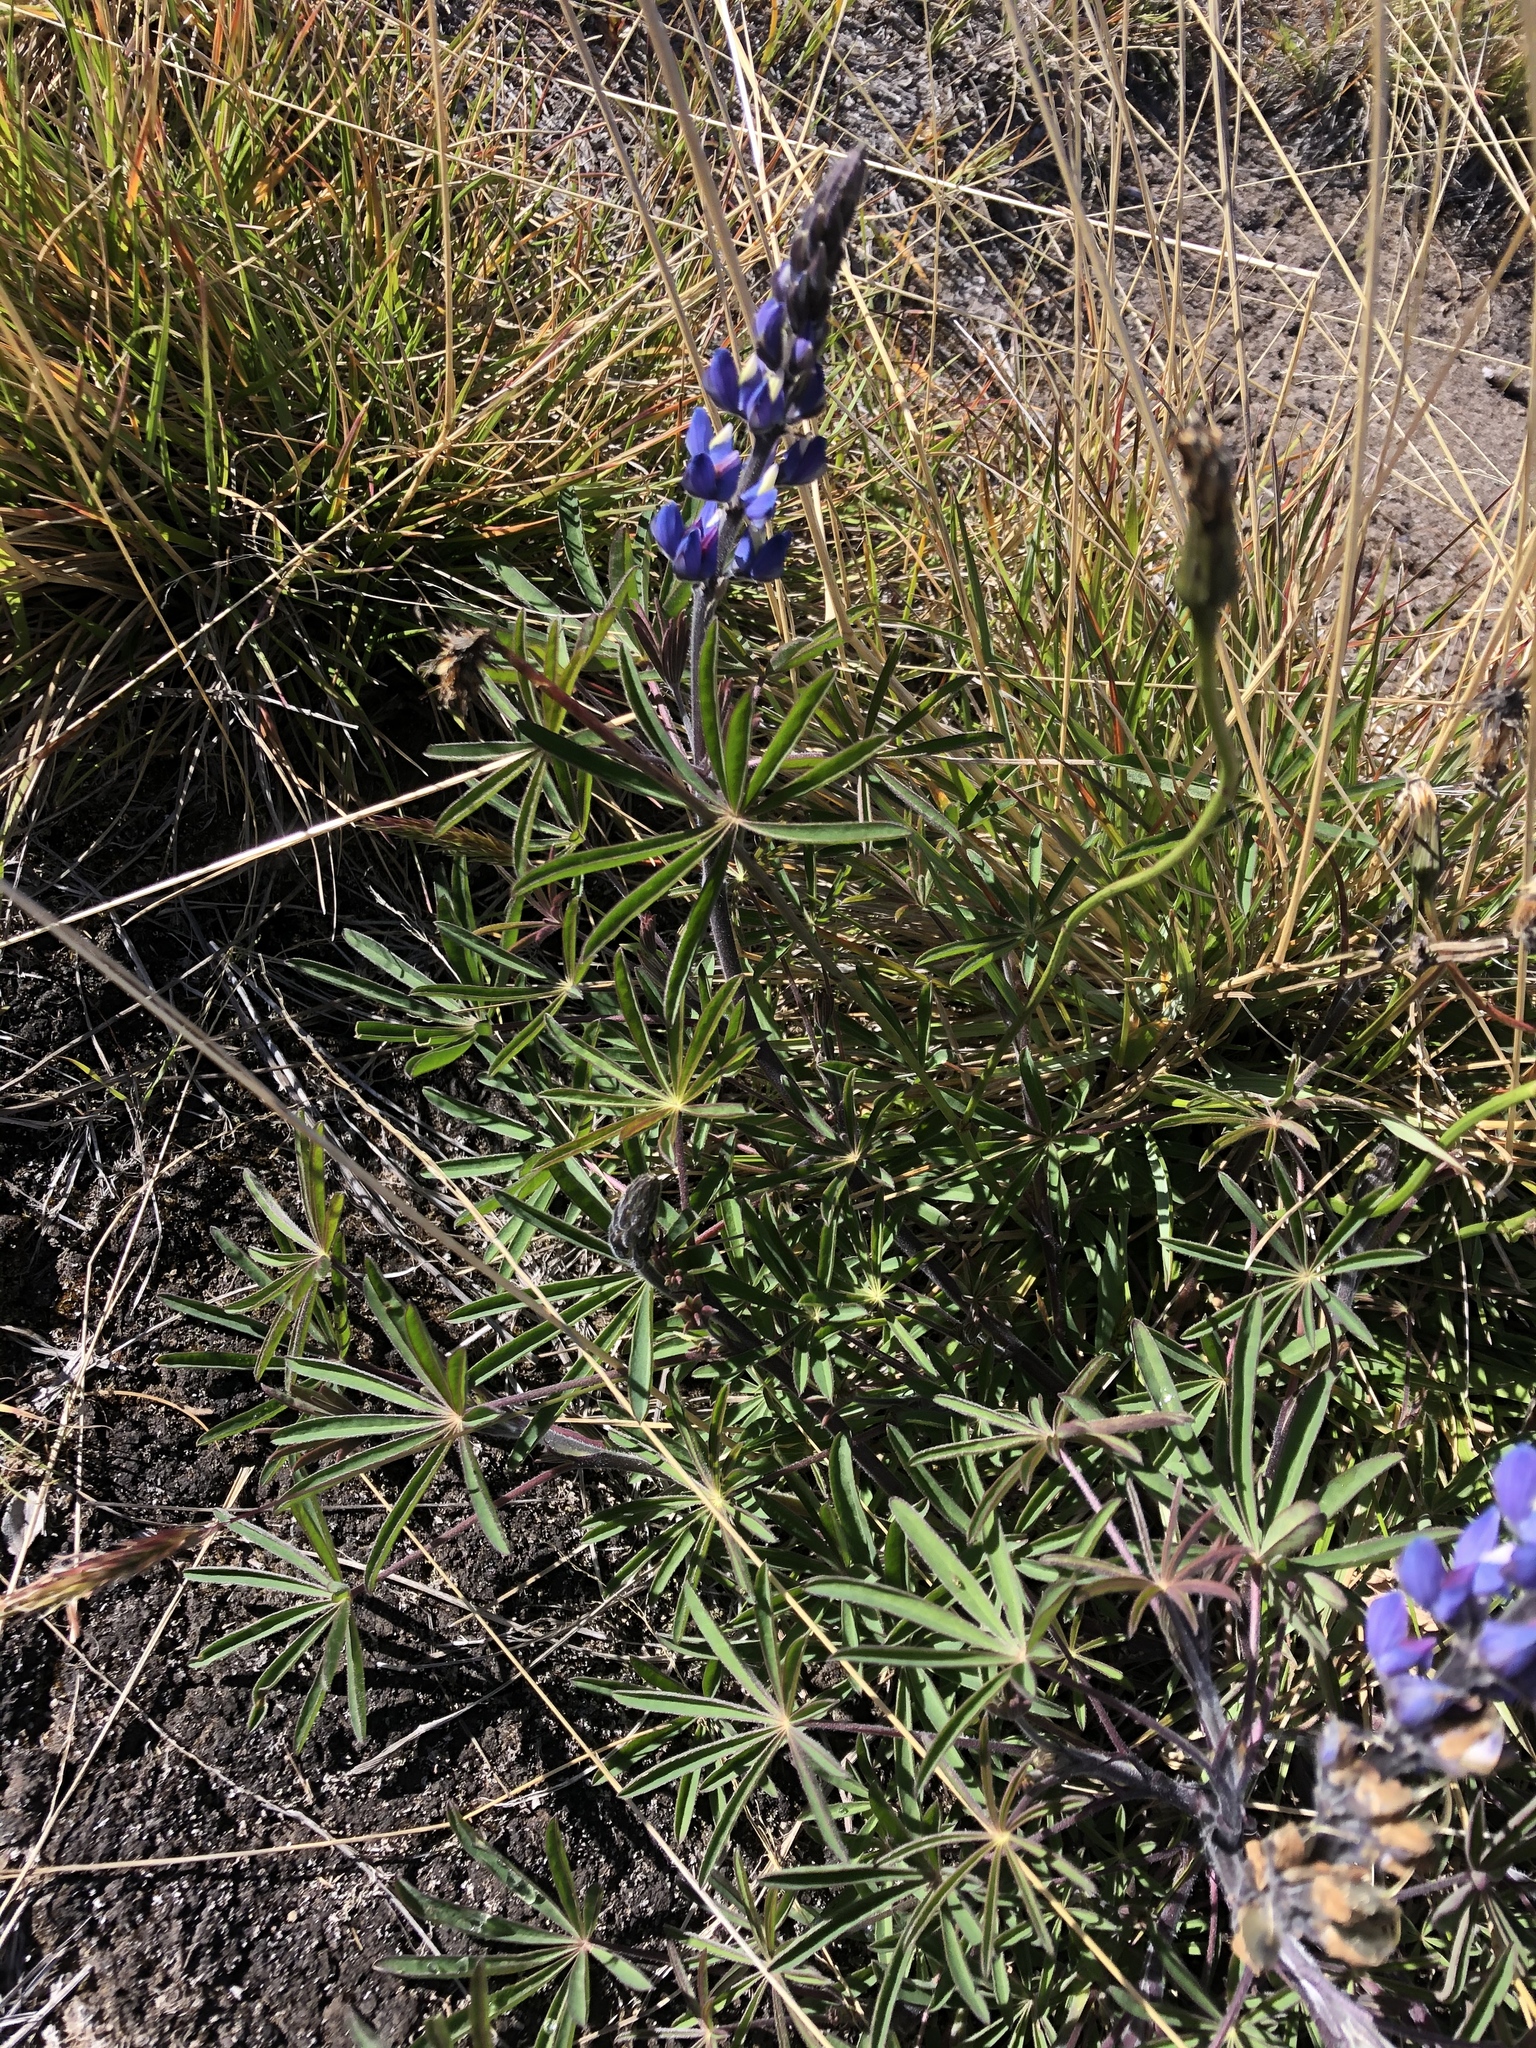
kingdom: Plantae
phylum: Tracheophyta
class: Magnoliopsida
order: Fabales
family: Fabaceae
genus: Lupinus
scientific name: Lupinus costaricensis
